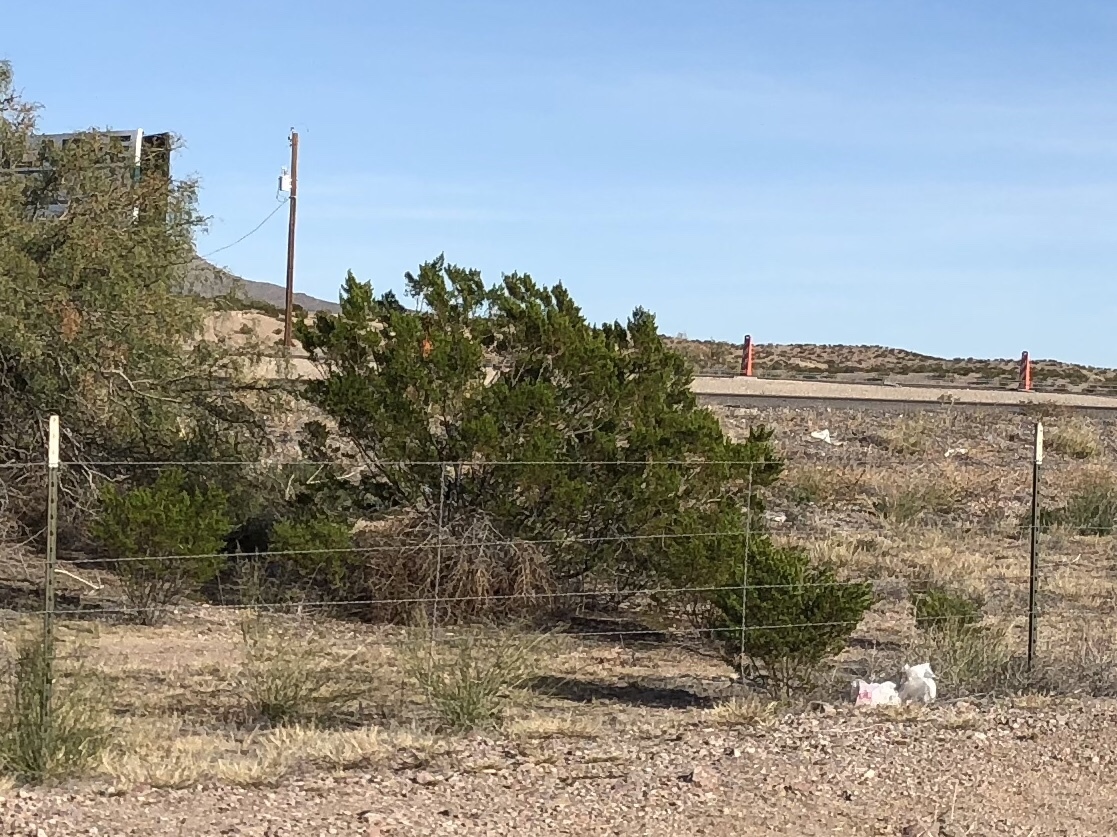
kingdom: Plantae
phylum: Tracheophyta
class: Magnoliopsida
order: Zygophyllales
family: Zygophyllaceae
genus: Larrea
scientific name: Larrea tridentata
